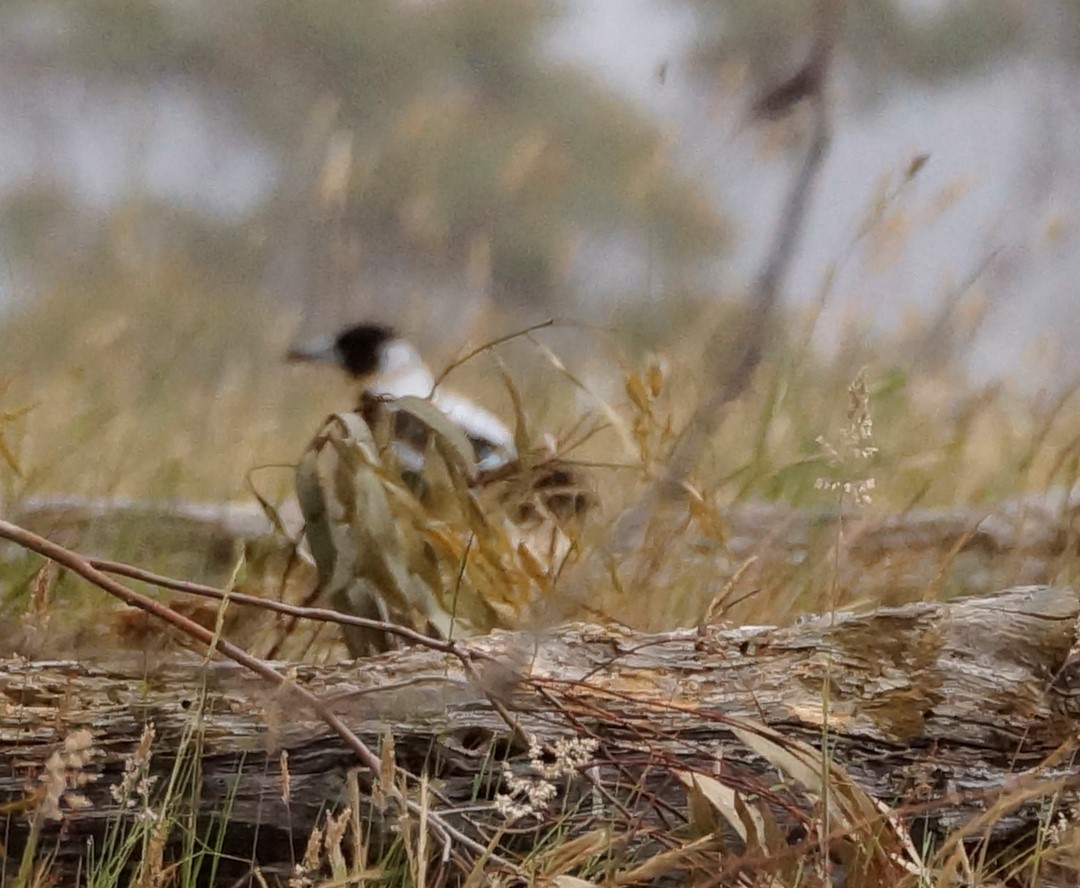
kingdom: Animalia
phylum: Chordata
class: Aves
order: Passeriformes
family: Cracticidae
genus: Gymnorhina
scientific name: Gymnorhina tibicen
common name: Australian magpie
